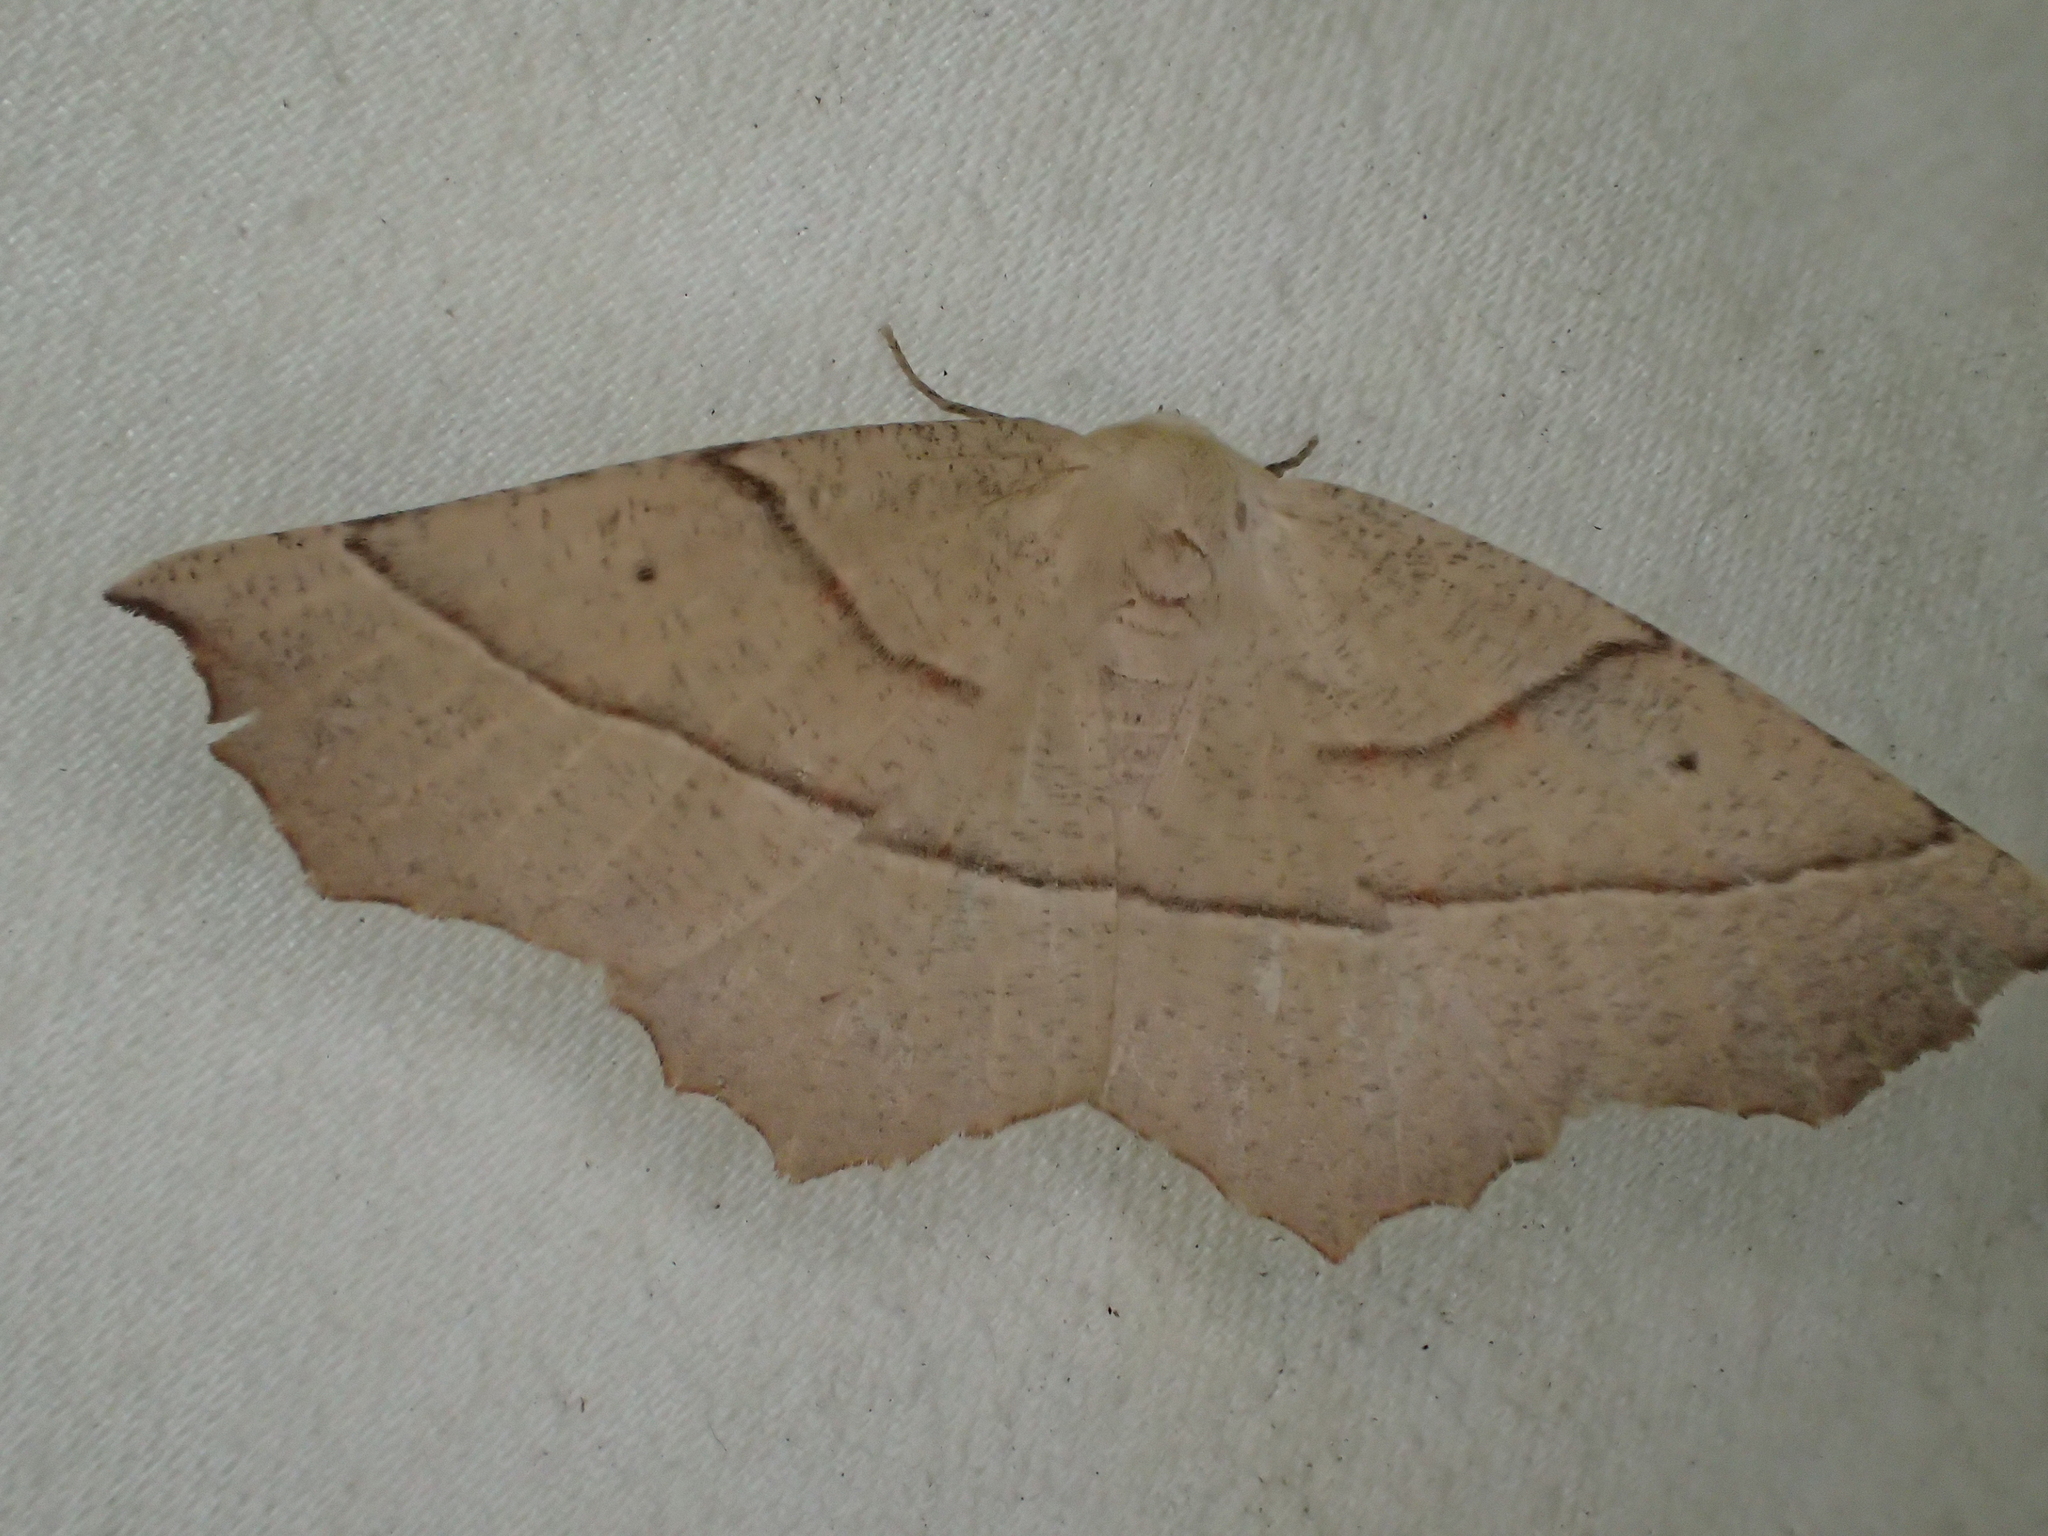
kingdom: Animalia
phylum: Arthropoda
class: Insecta
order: Lepidoptera
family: Geometridae
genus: Gerinia
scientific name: Gerinia honoraria
